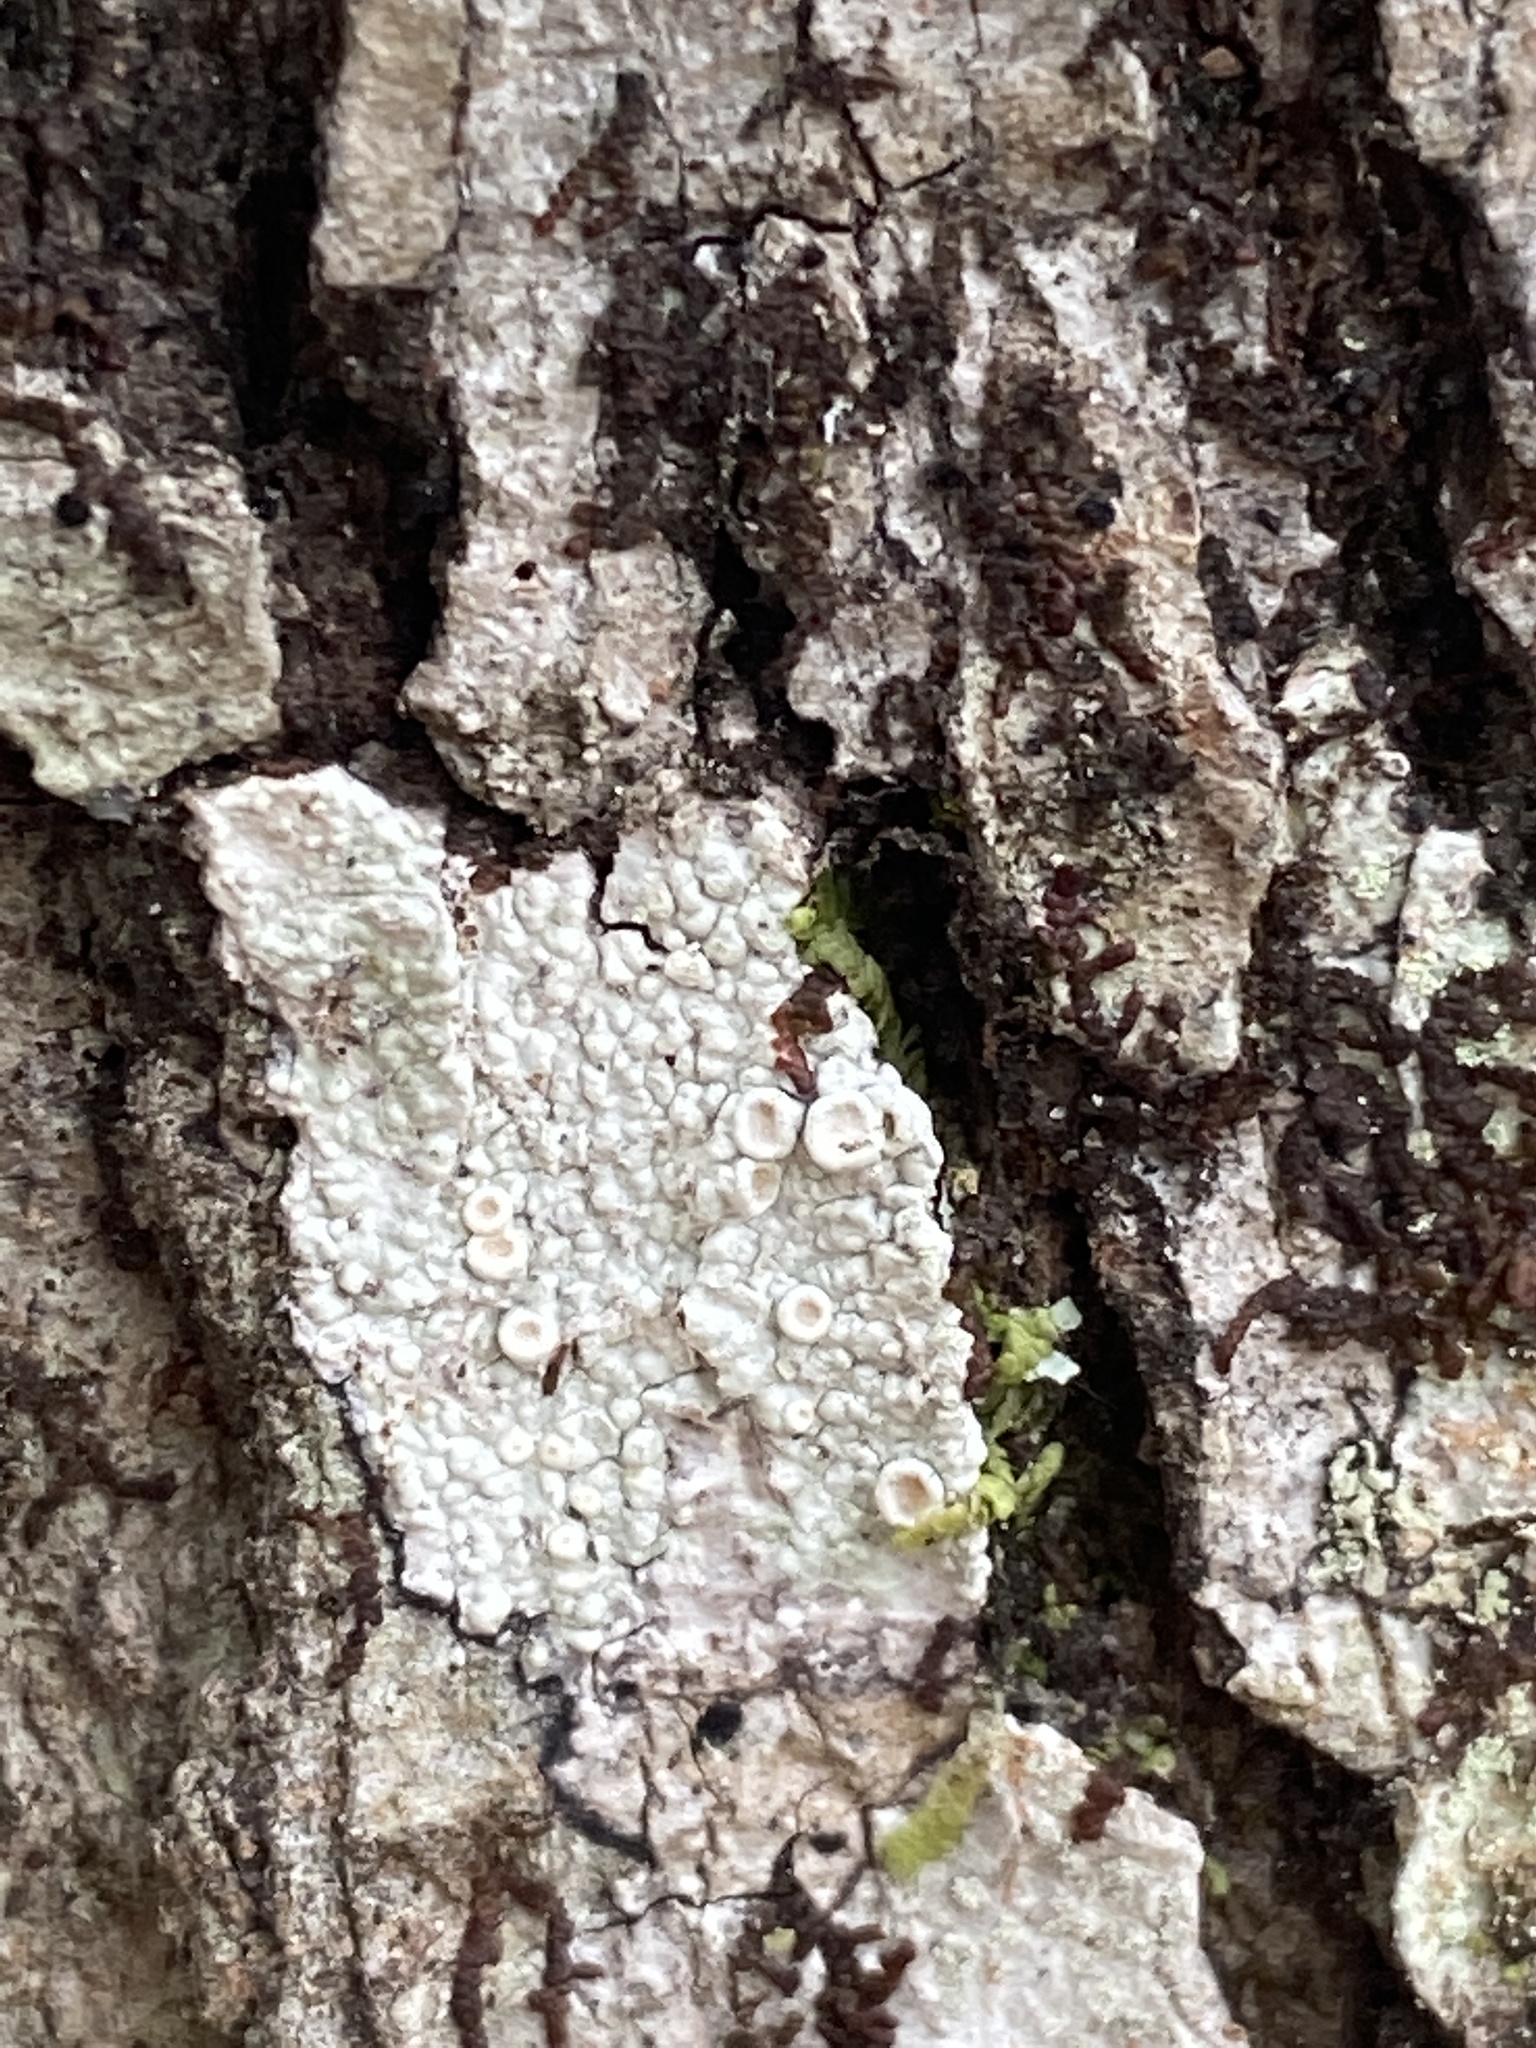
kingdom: Fungi
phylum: Ascomycota
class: Lecanoromycetes
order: Pertusariales
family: Ochrolechiaceae
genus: Ochrolechia
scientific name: Ochrolechia africana
